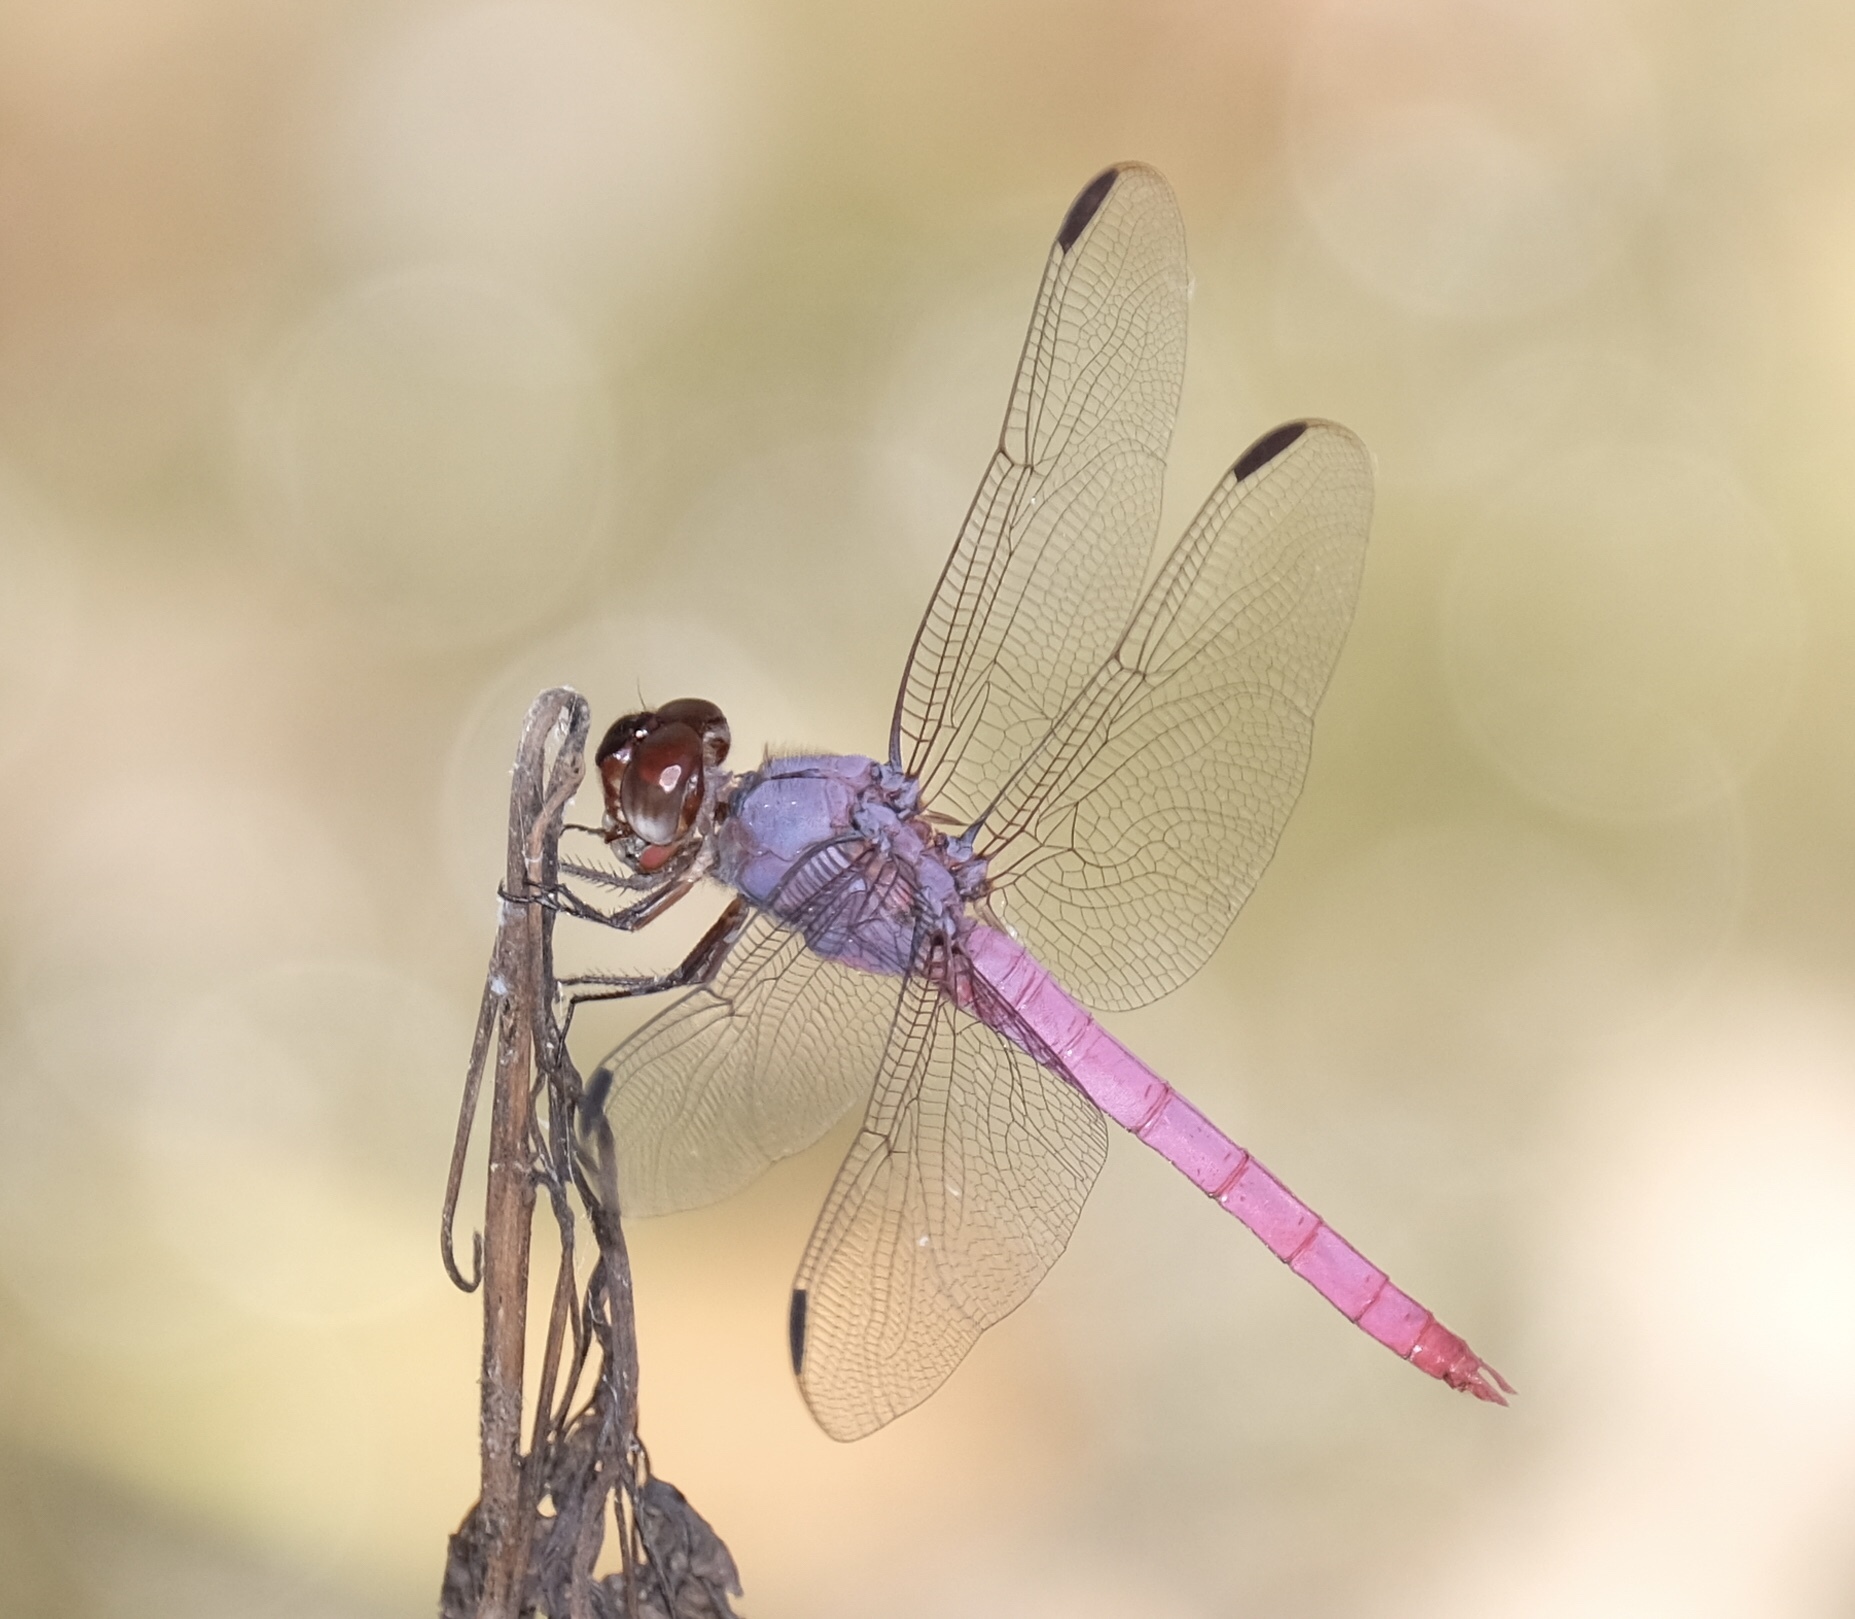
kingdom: Animalia
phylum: Arthropoda
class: Insecta
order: Odonata
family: Libellulidae
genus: Orthemis
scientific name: Orthemis ferruginea
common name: Roseate skimmer
